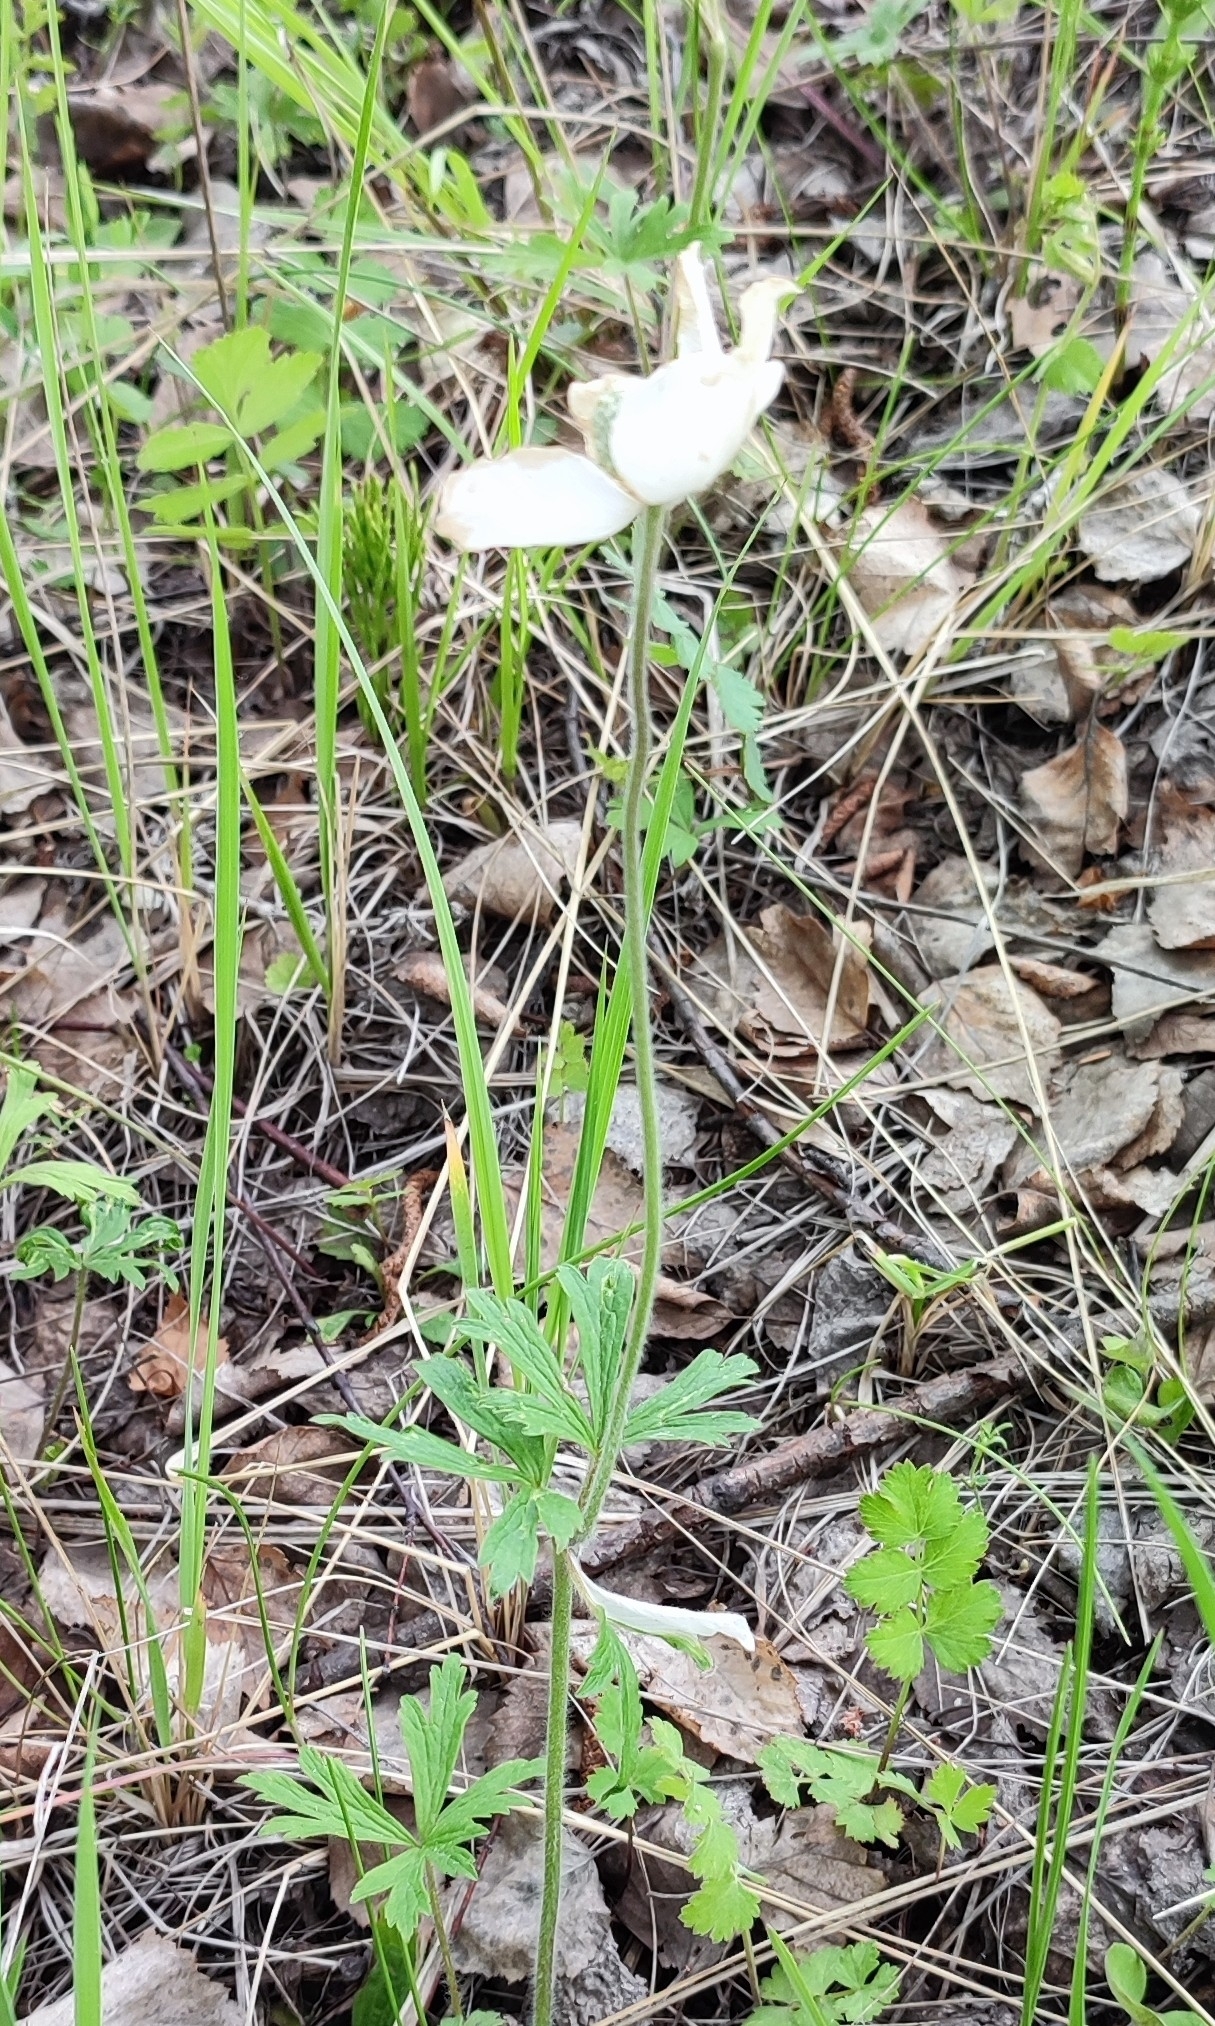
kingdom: Plantae
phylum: Tracheophyta
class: Magnoliopsida
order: Ranunculales
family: Ranunculaceae
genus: Anemone
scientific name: Anemone sylvestris
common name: Snowdrop anemone
